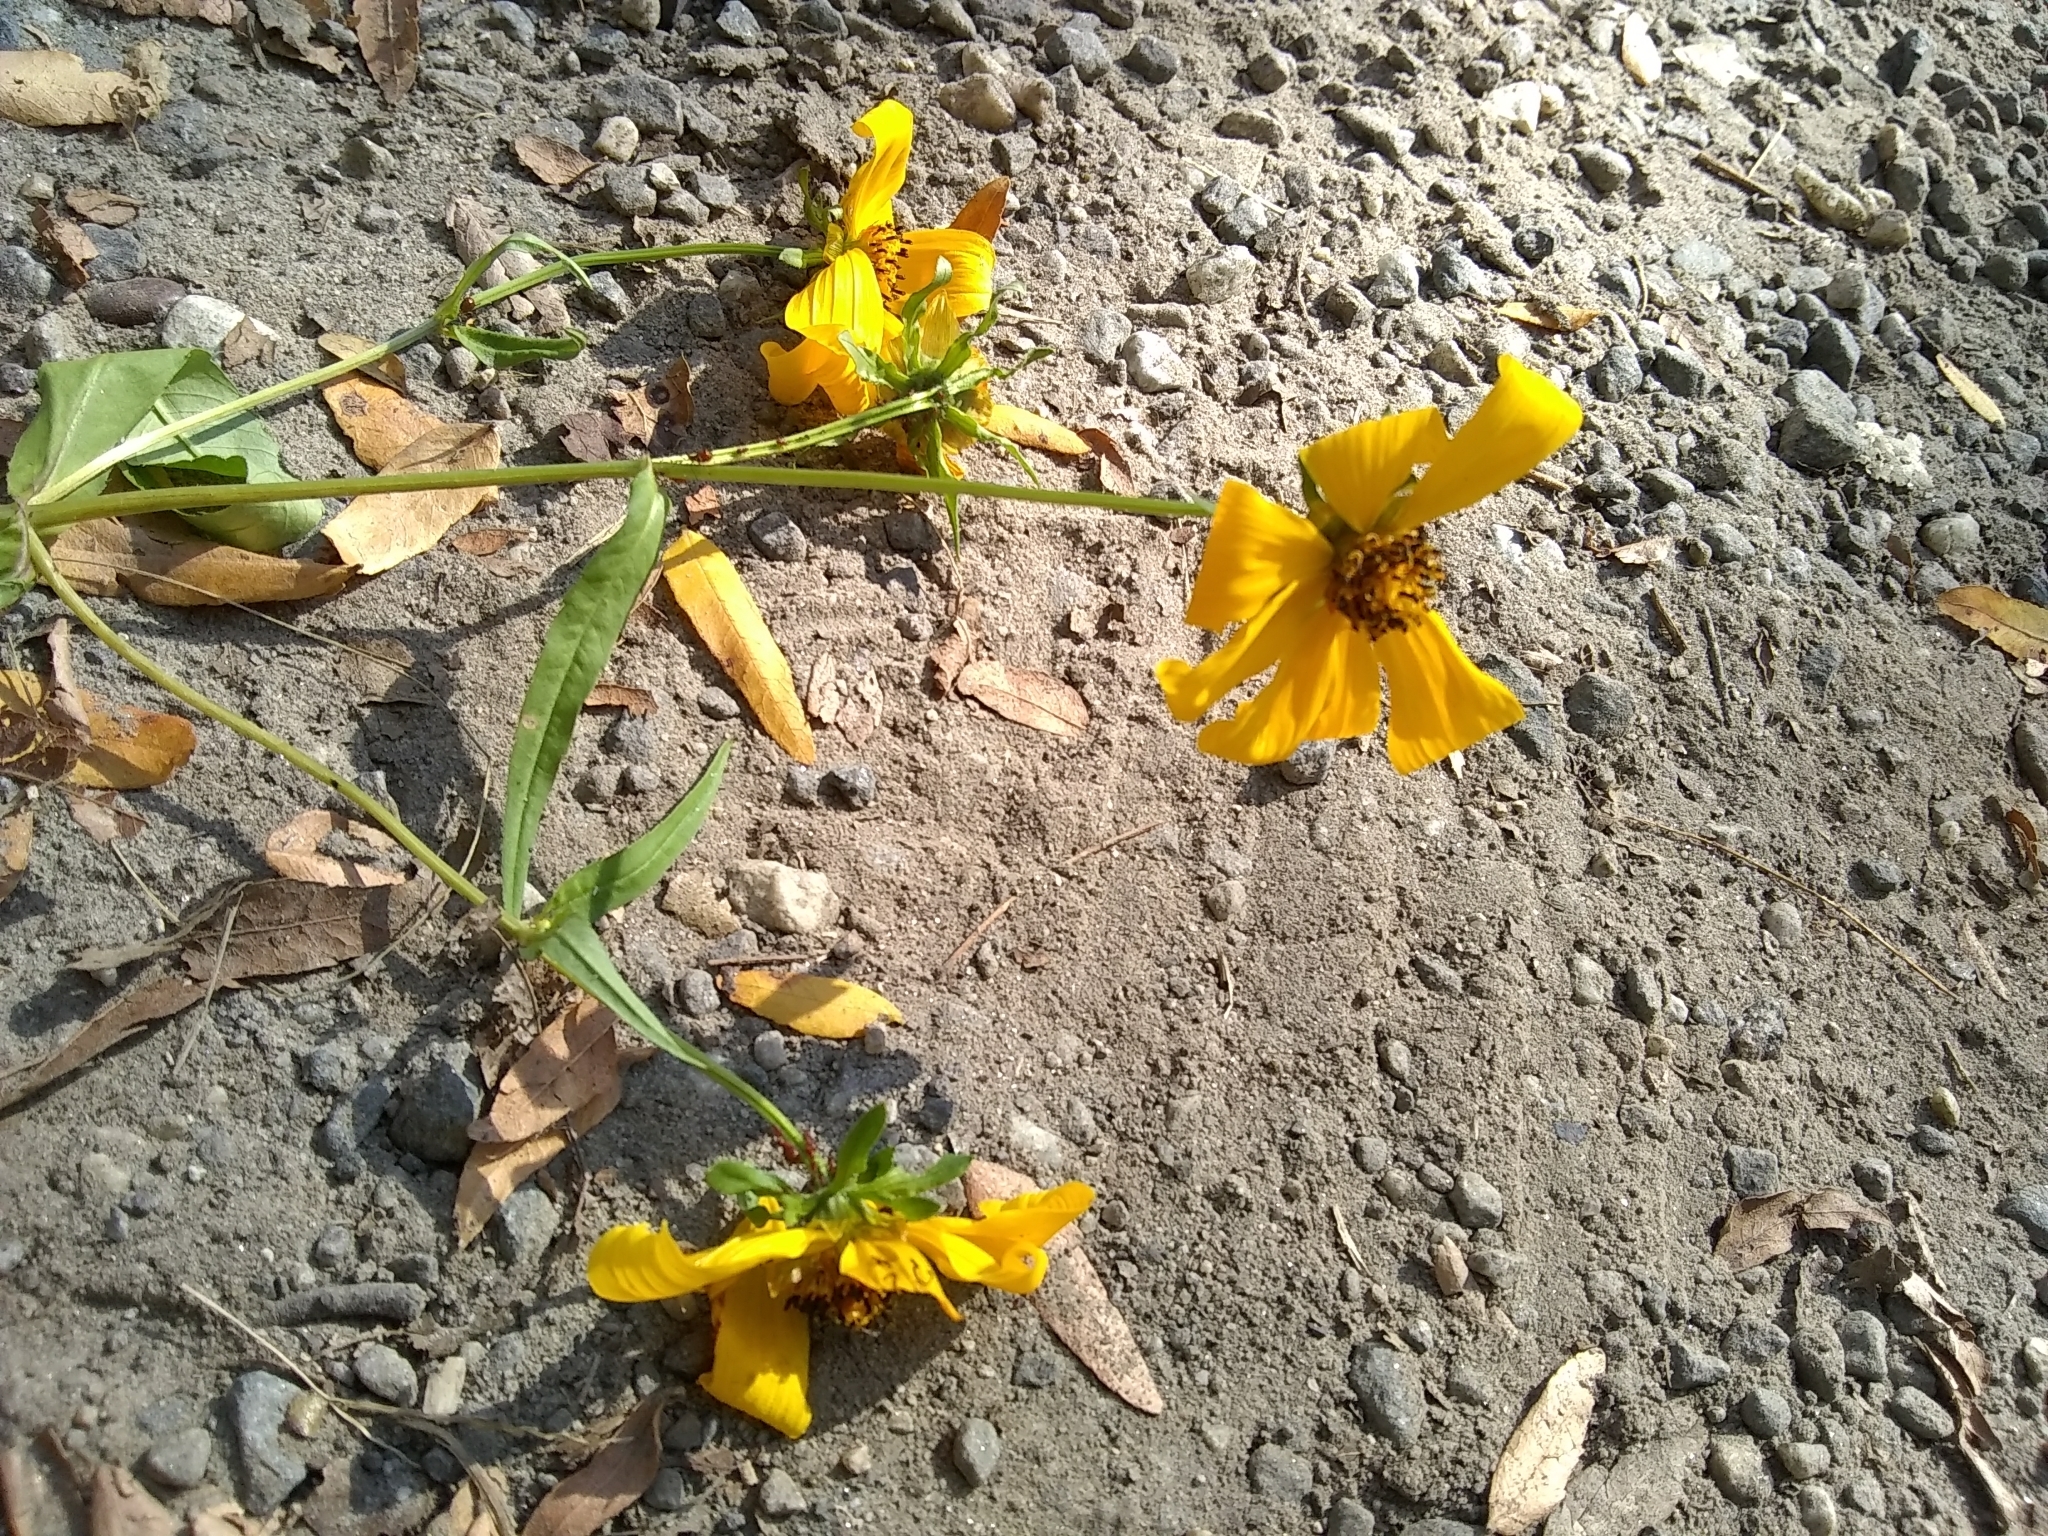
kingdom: Plantae
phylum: Tracheophyta
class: Magnoliopsida
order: Asterales
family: Asteraceae
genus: Bidens
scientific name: Bidens laevis
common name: Larger bur-marigold
